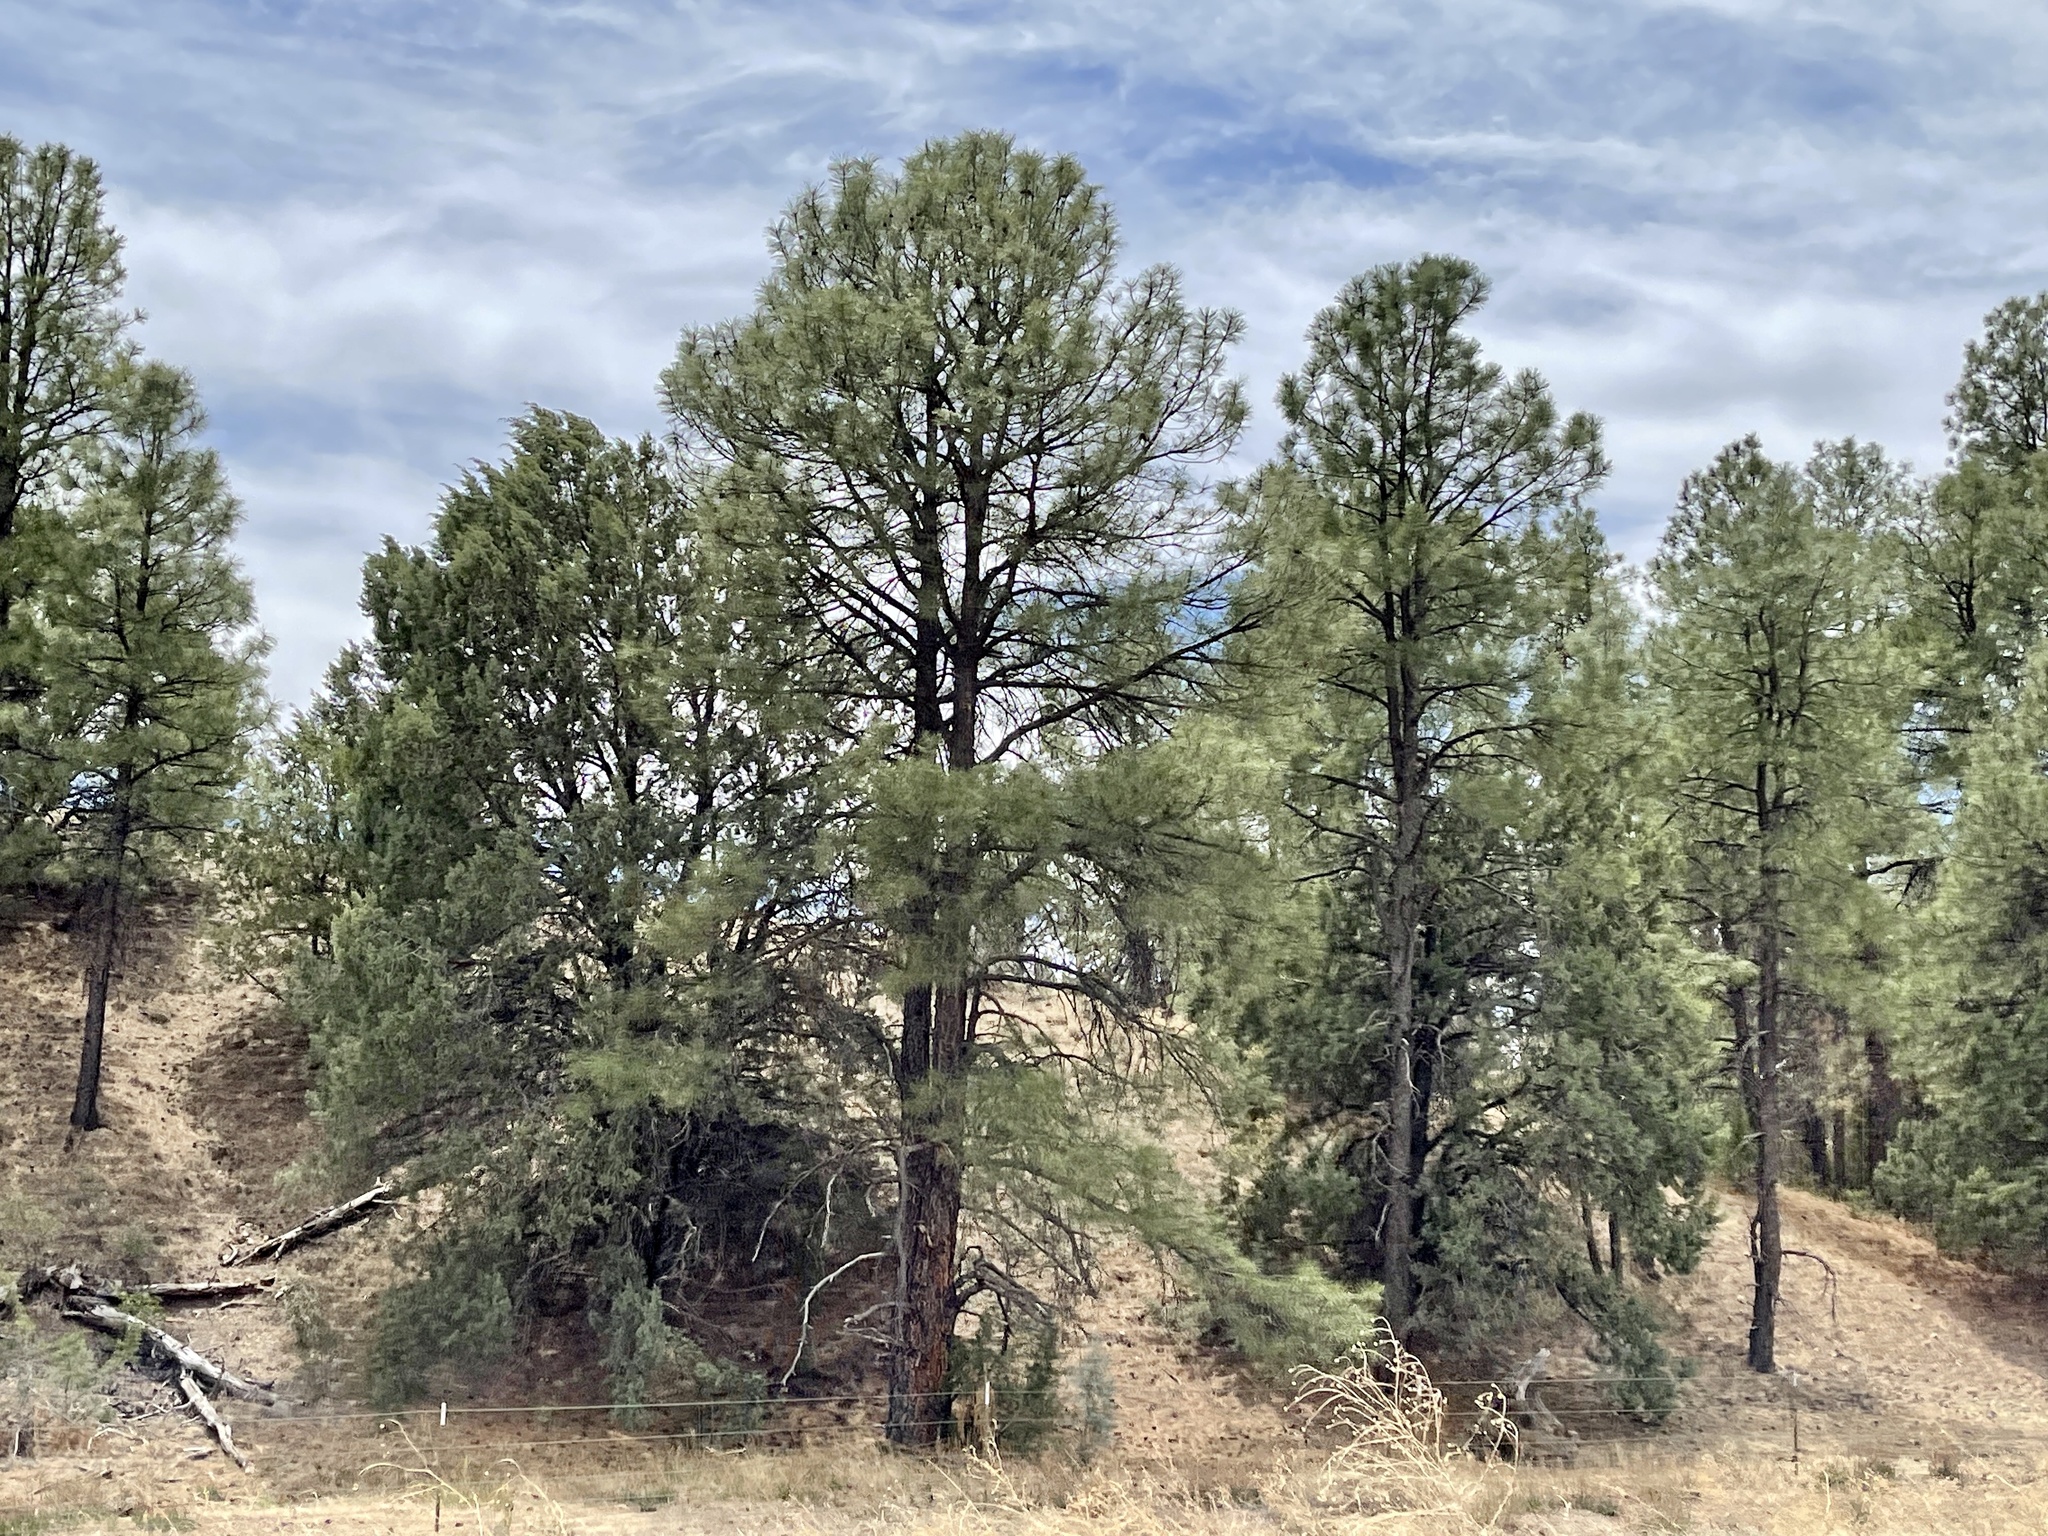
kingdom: Plantae
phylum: Tracheophyta
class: Pinopsida
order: Pinales
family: Pinaceae
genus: Pinus
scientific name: Pinus ponderosa
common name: Western yellow-pine
